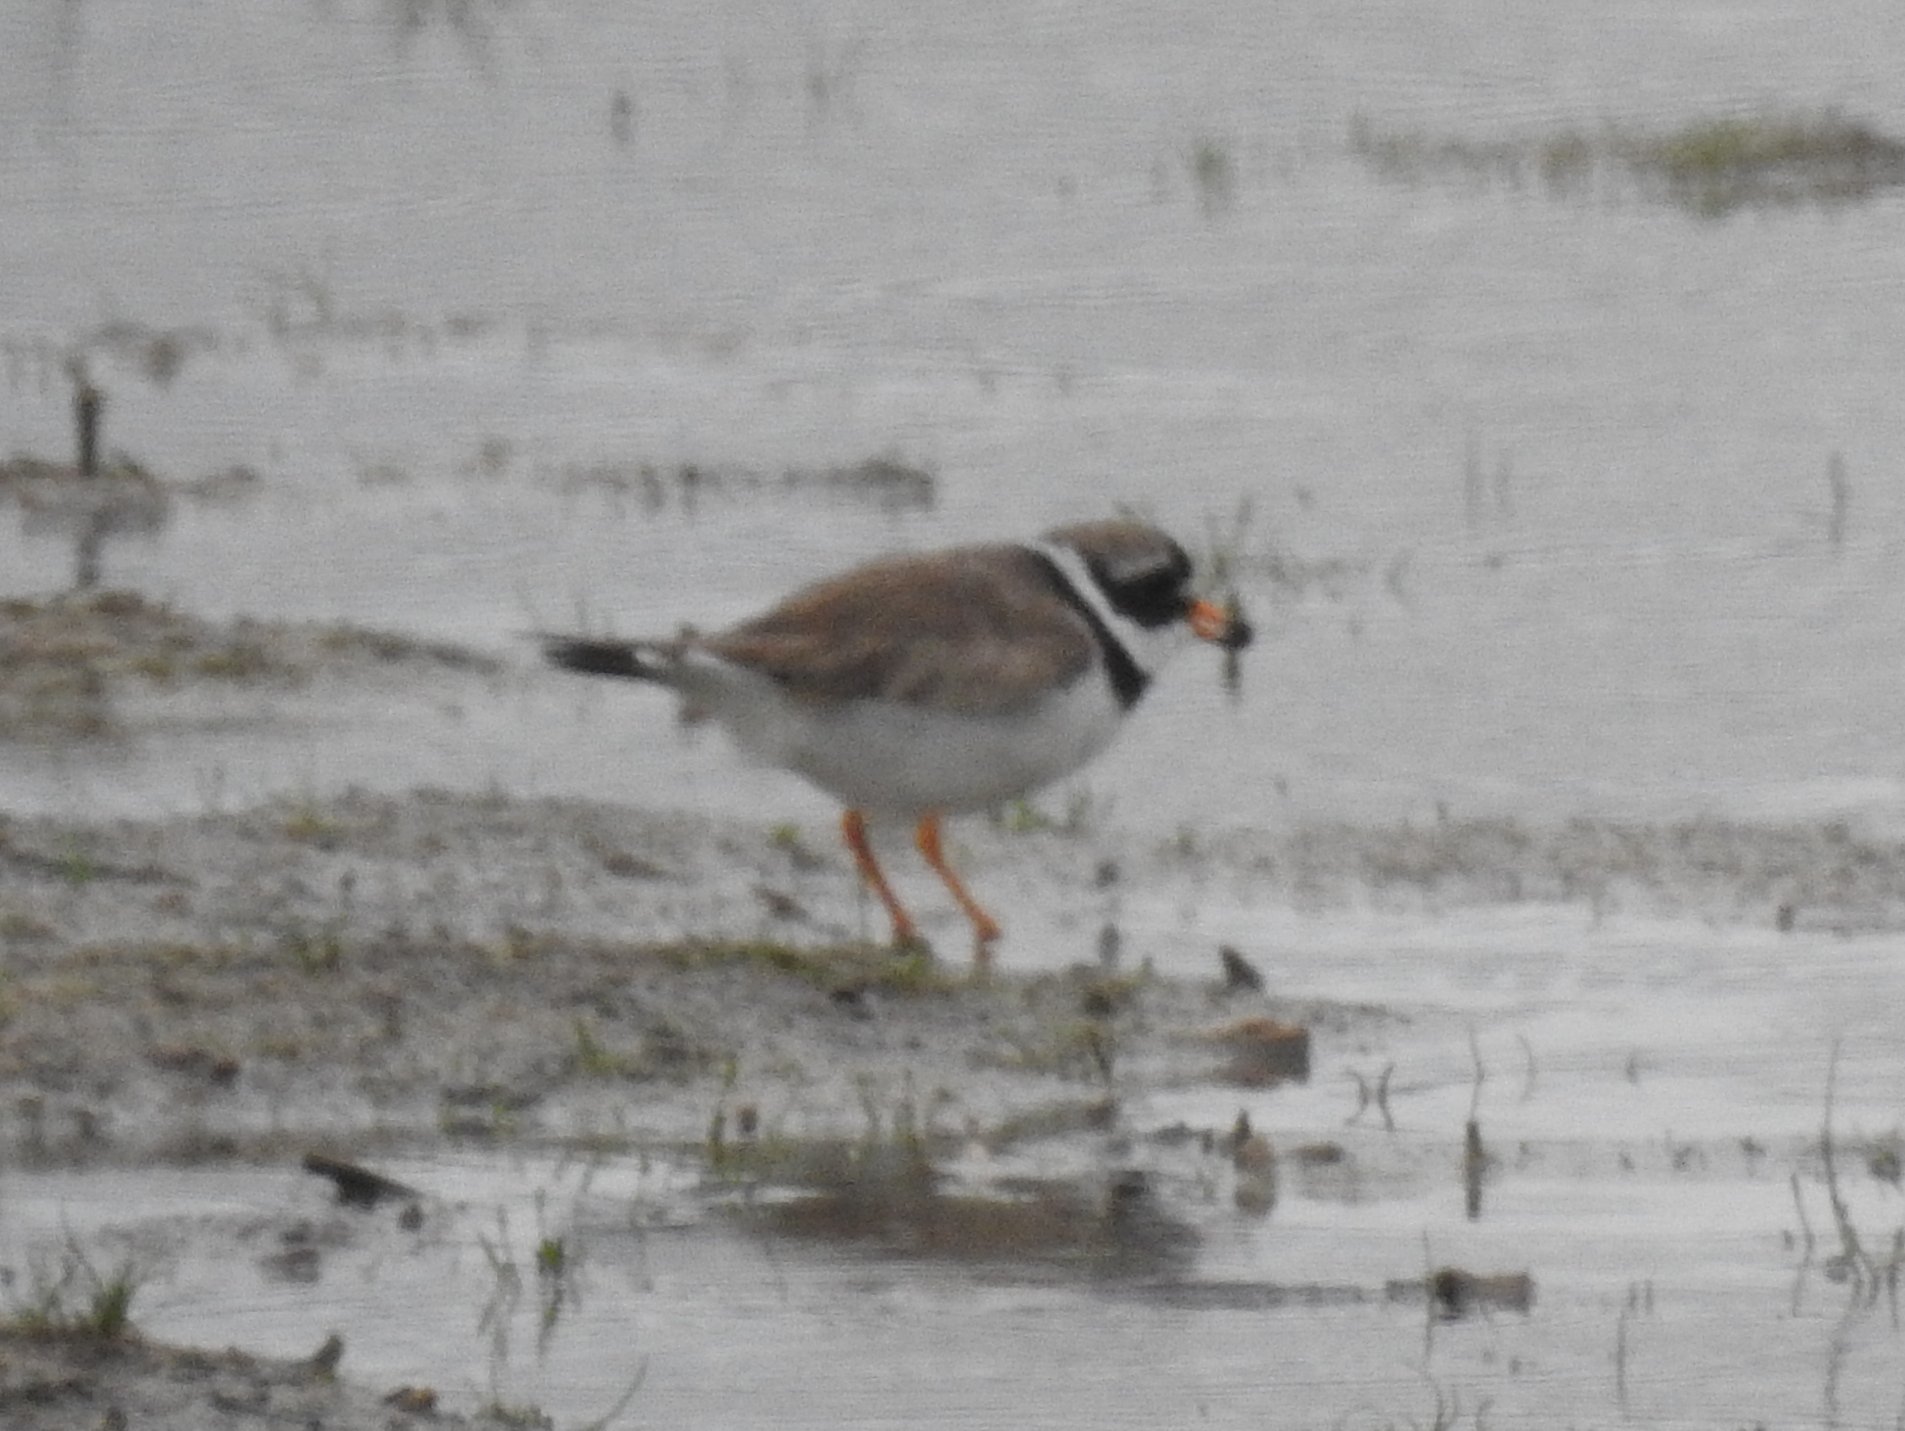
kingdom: Animalia
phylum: Chordata
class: Aves
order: Charadriiformes
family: Charadriidae
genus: Charadrius
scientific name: Charadrius hiaticula
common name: Common ringed plover
